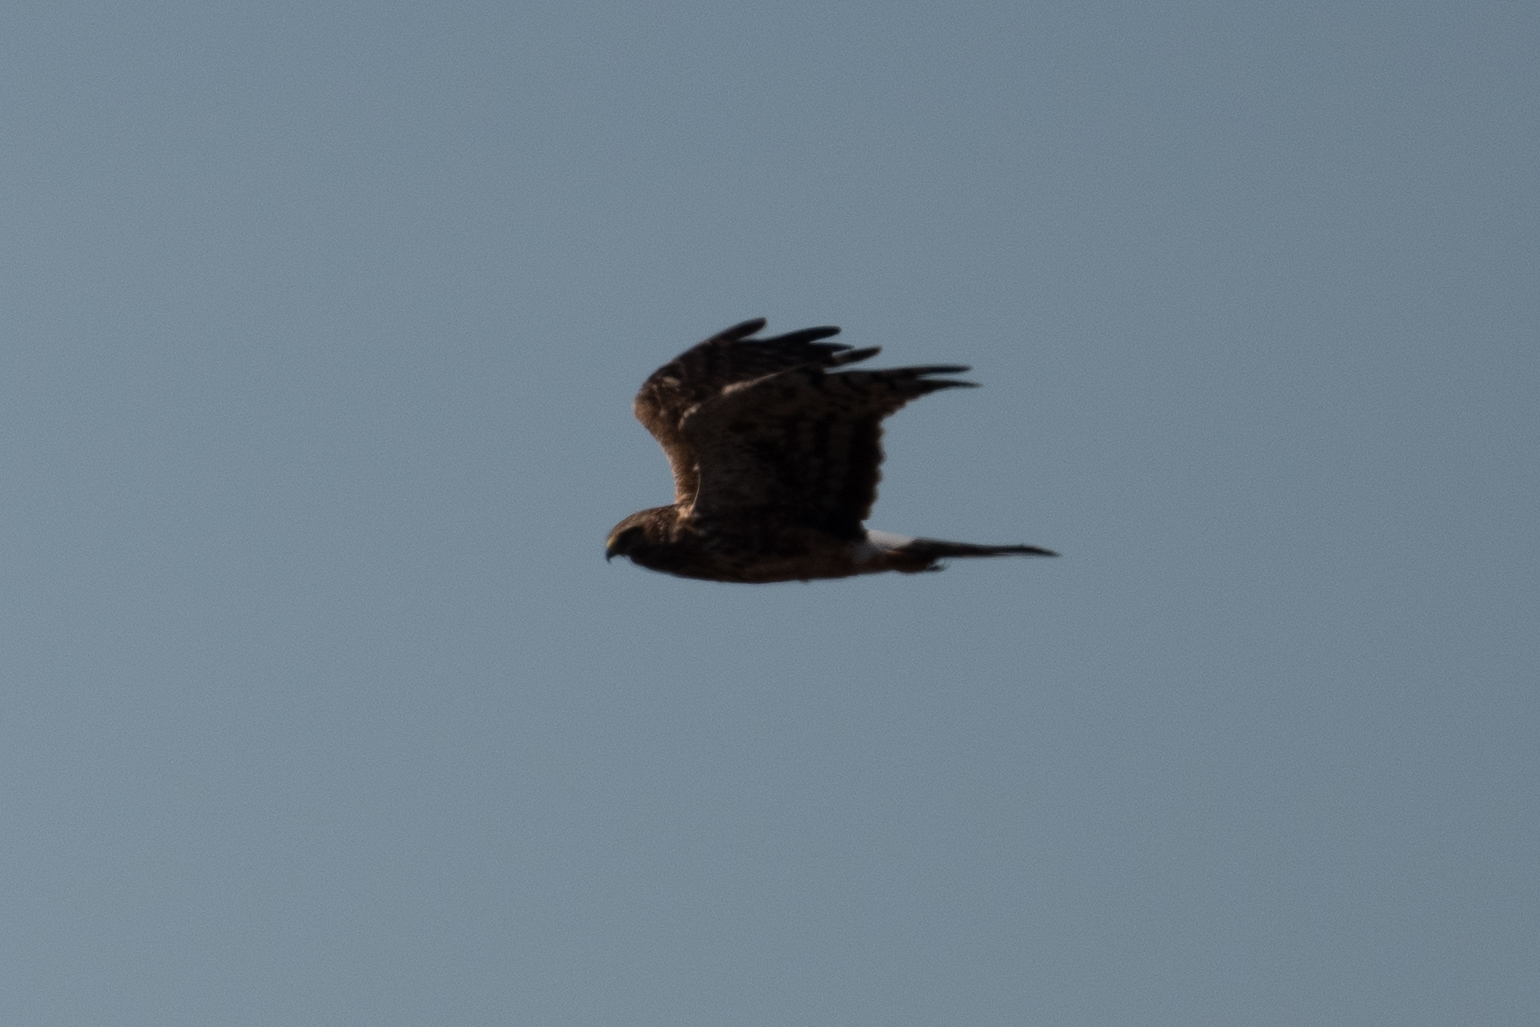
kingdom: Animalia
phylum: Chordata
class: Aves
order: Accipitriformes
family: Accipitridae
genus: Circus
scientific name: Circus cyaneus
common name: Hen harrier
